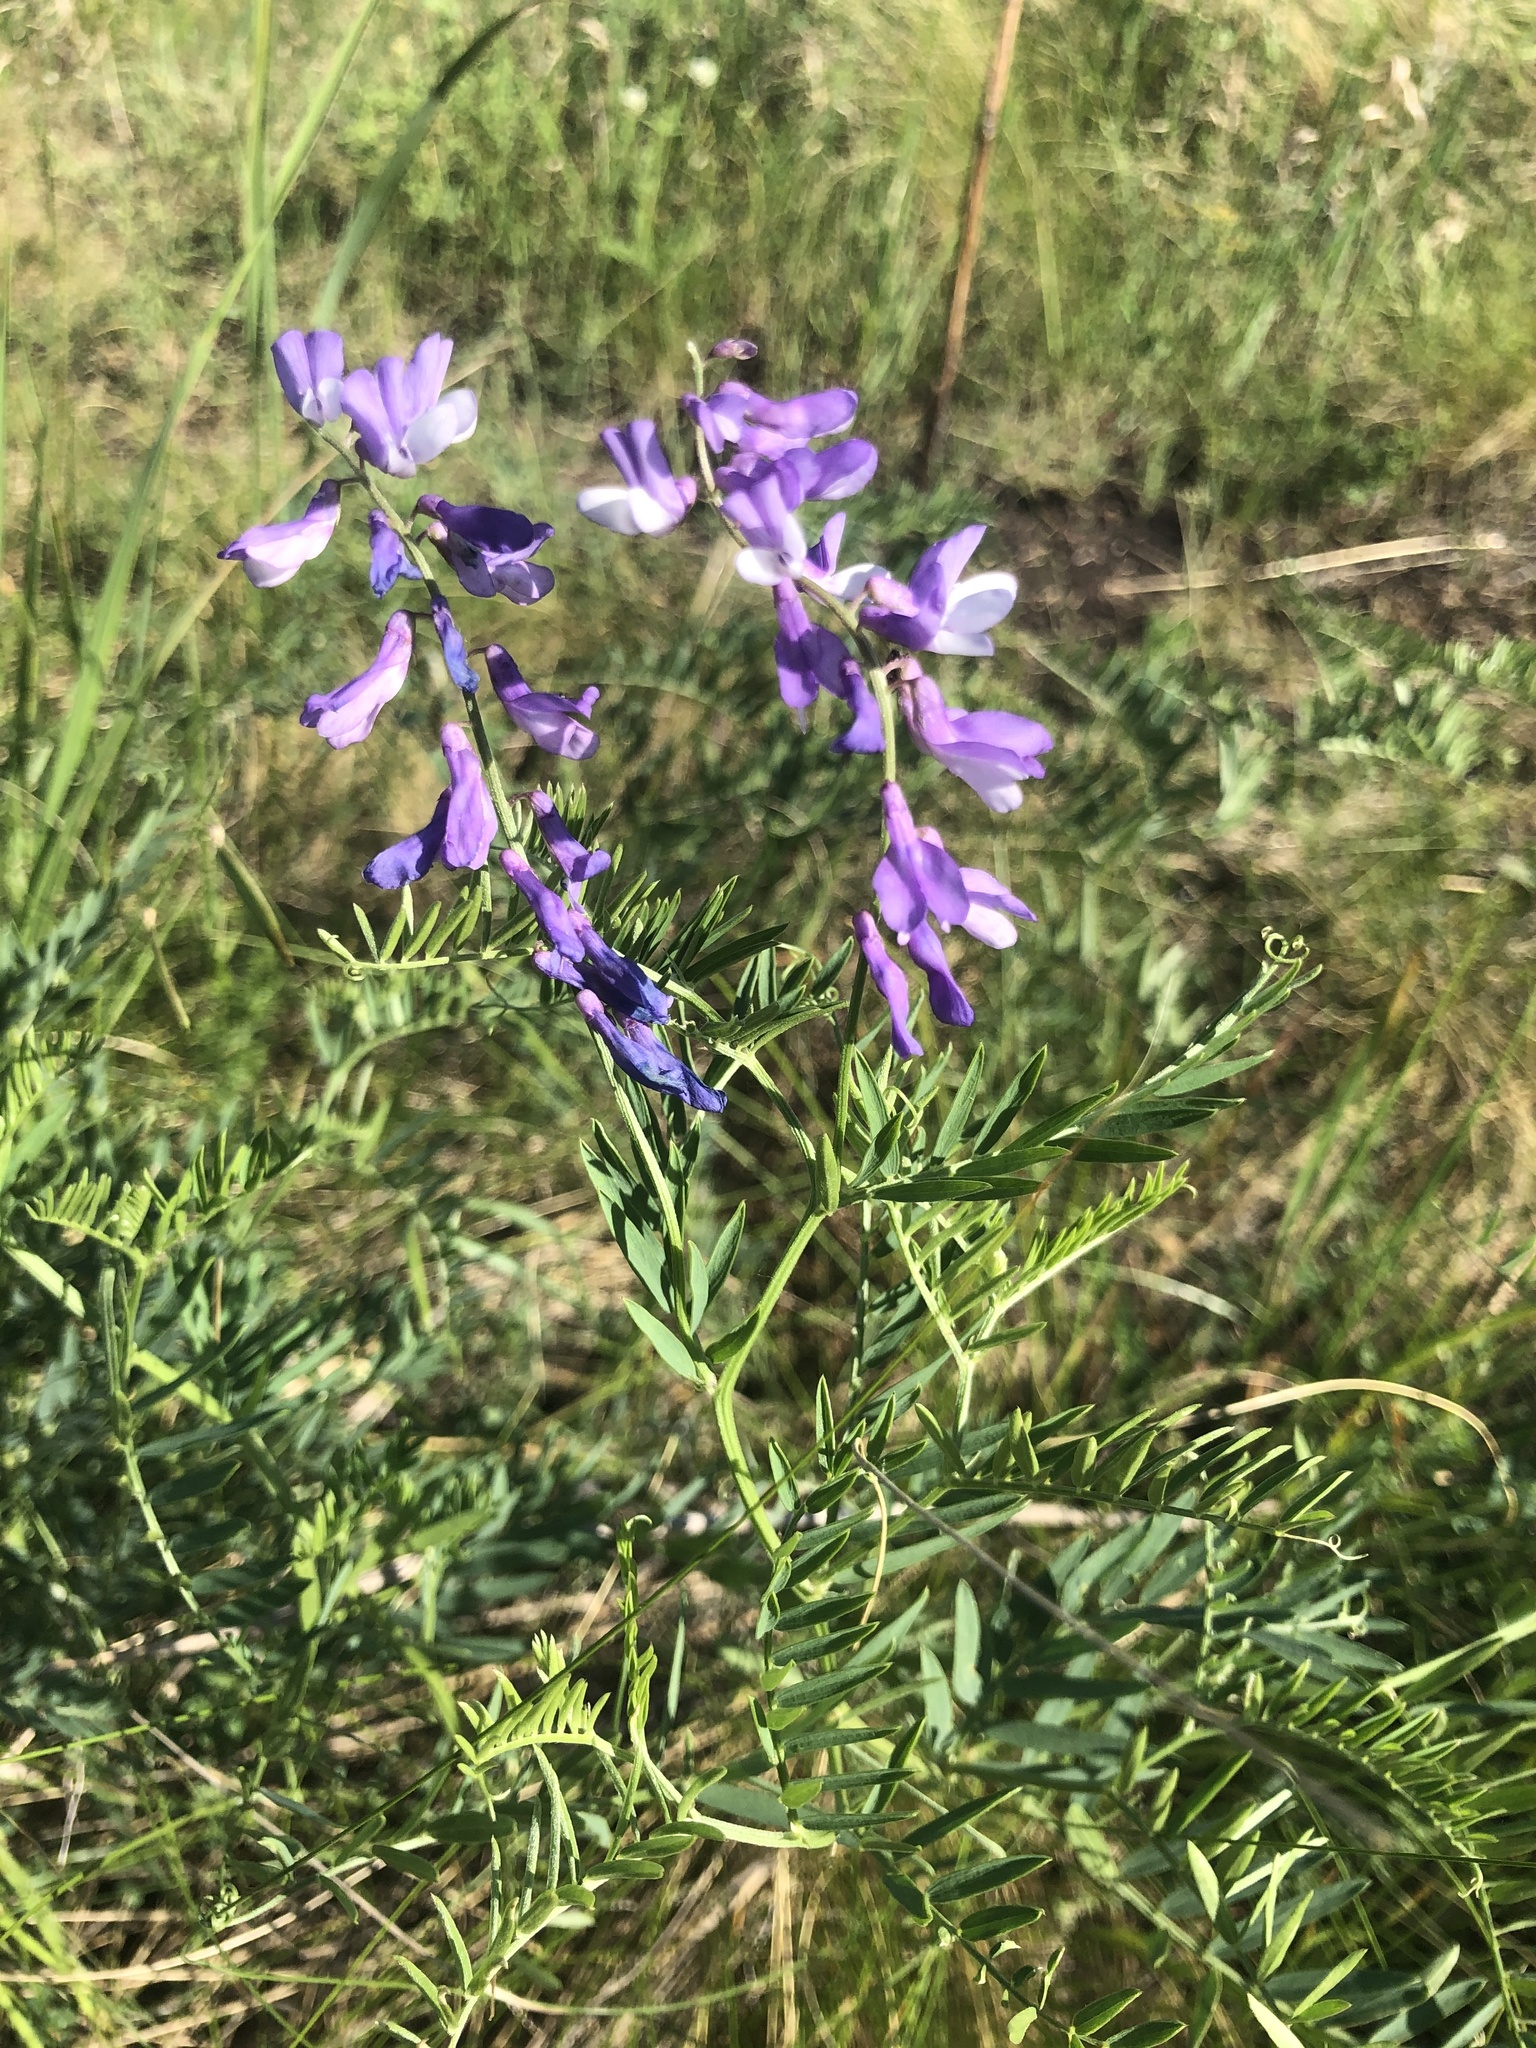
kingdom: Plantae
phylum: Tracheophyta
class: Magnoliopsida
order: Fabales
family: Fabaceae
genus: Vicia
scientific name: Vicia tenuifolia
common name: Fine-leaved vetch
